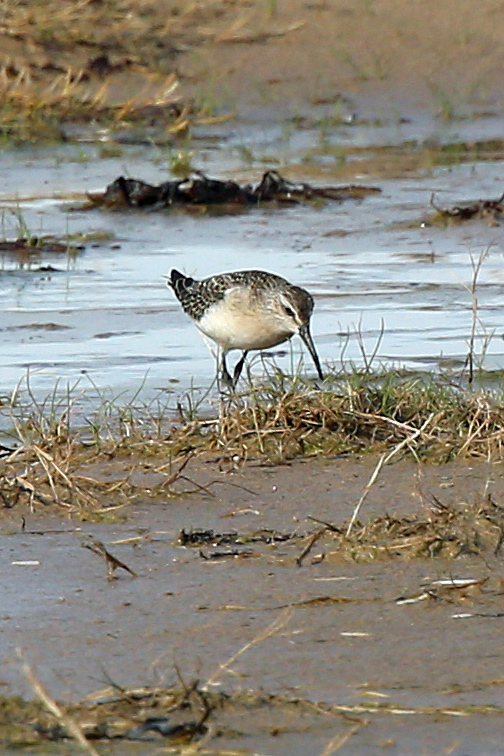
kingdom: Animalia
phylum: Chordata
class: Aves
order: Charadriiformes
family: Scolopacidae
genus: Calidris
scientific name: Calidris ferruginea
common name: Curlew sandpiper
